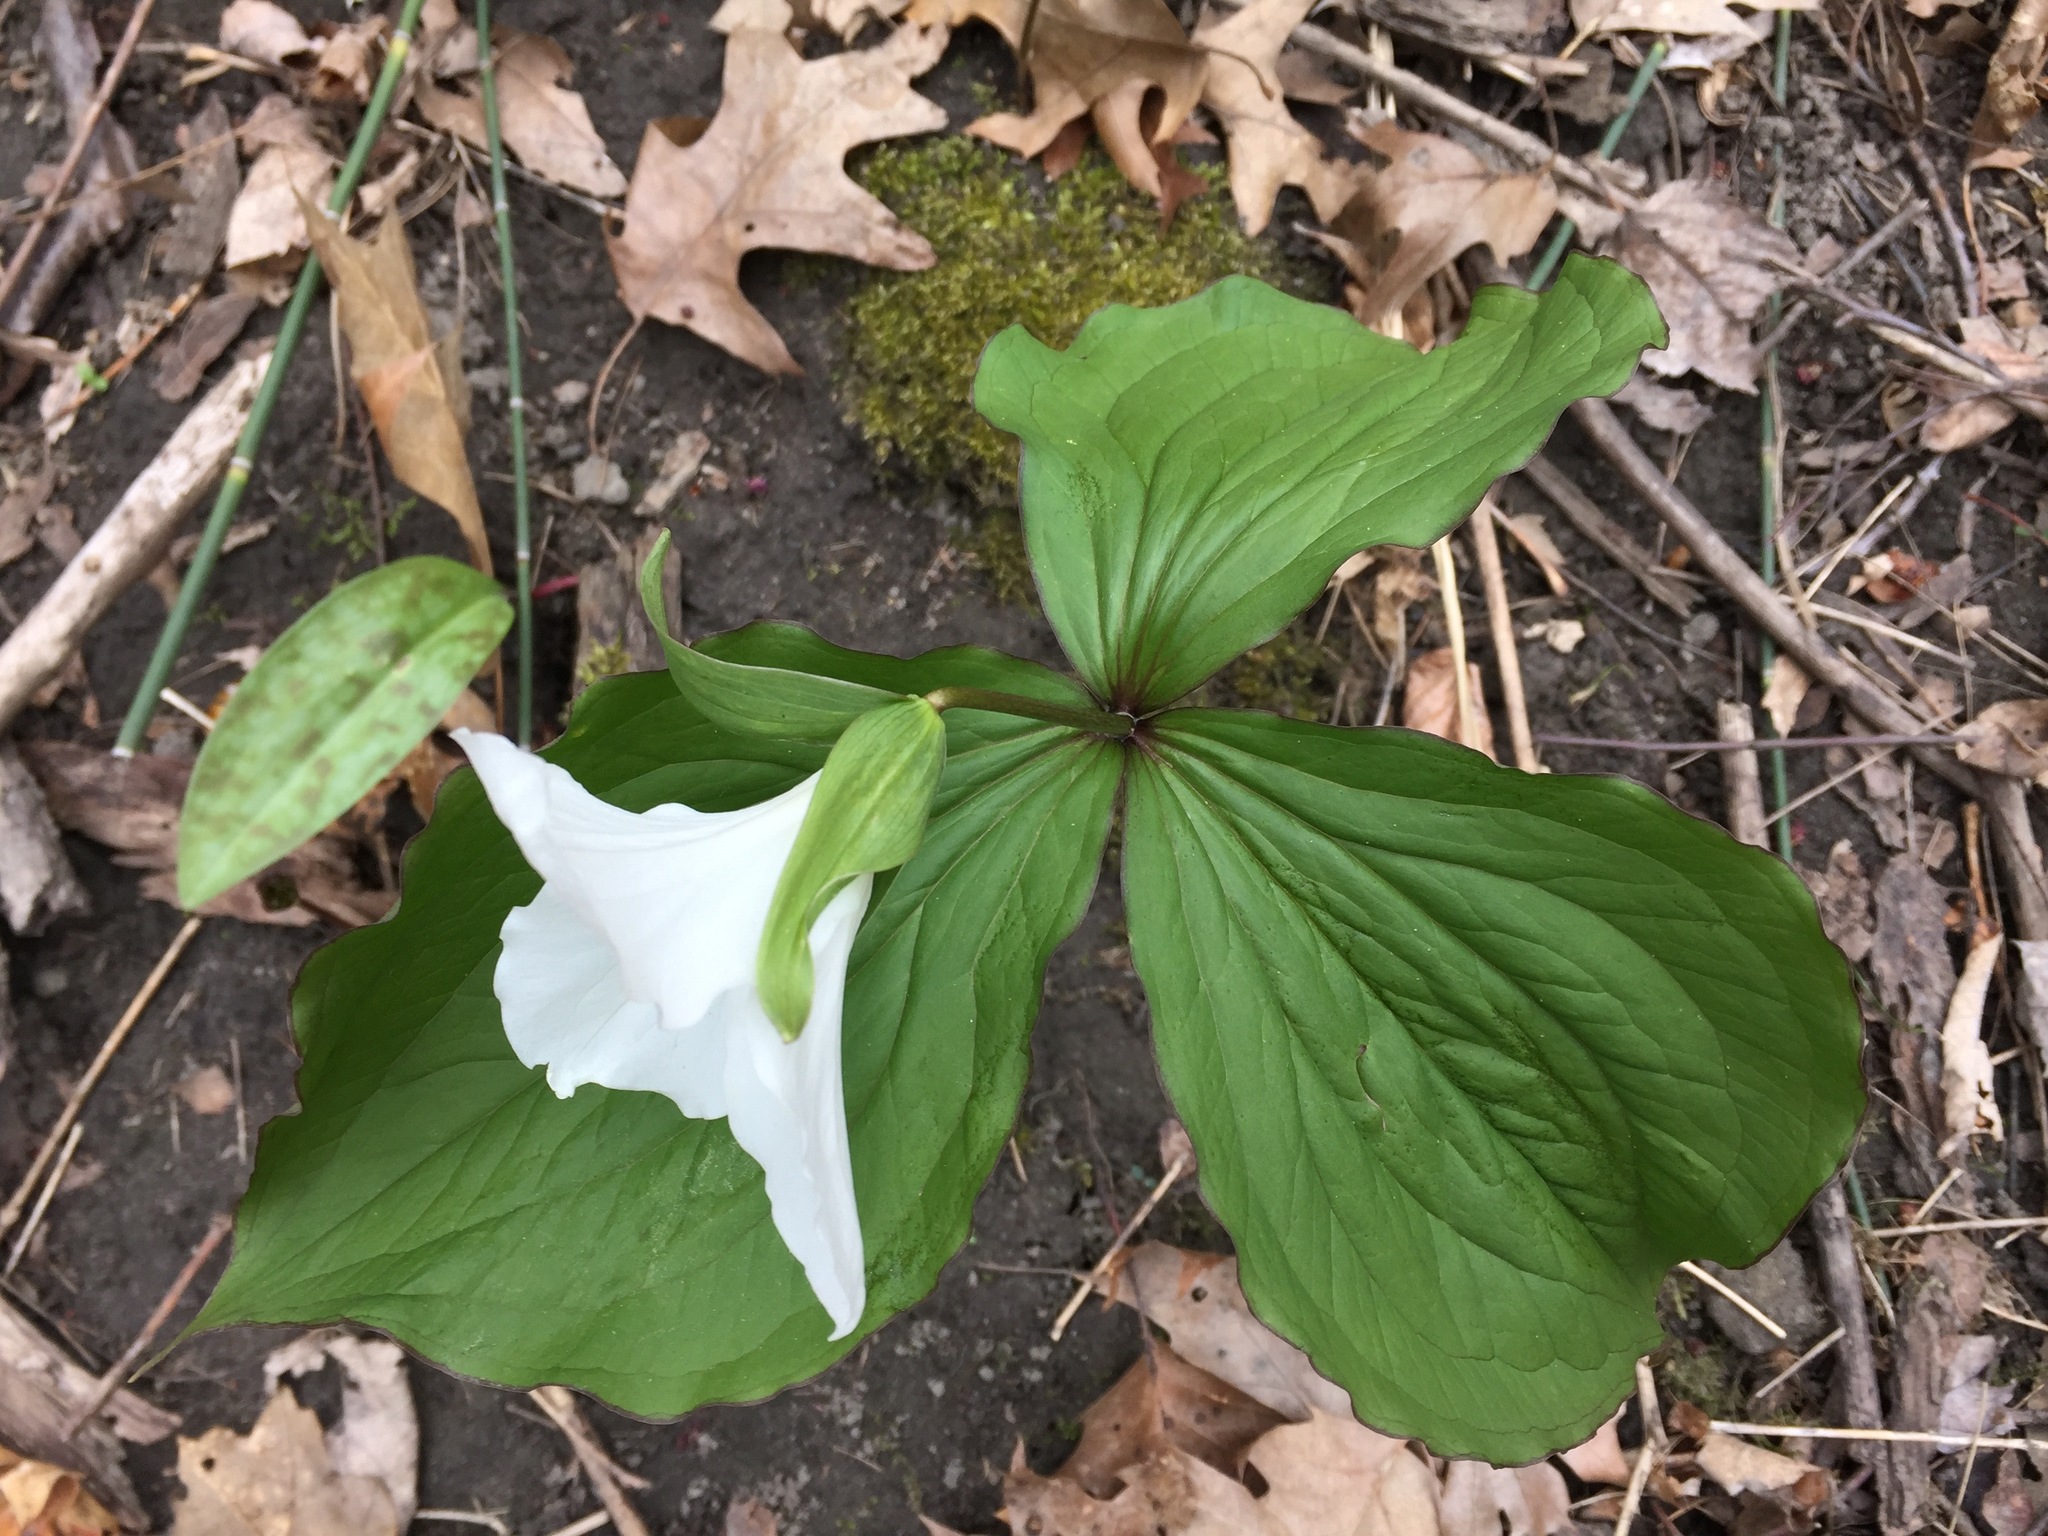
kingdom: Plantae
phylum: Tracheophyta
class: Liliopsida
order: Liliales
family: Melanthiaceae
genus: Trillium
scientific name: Trillium grandiflorum
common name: Great white trillium
